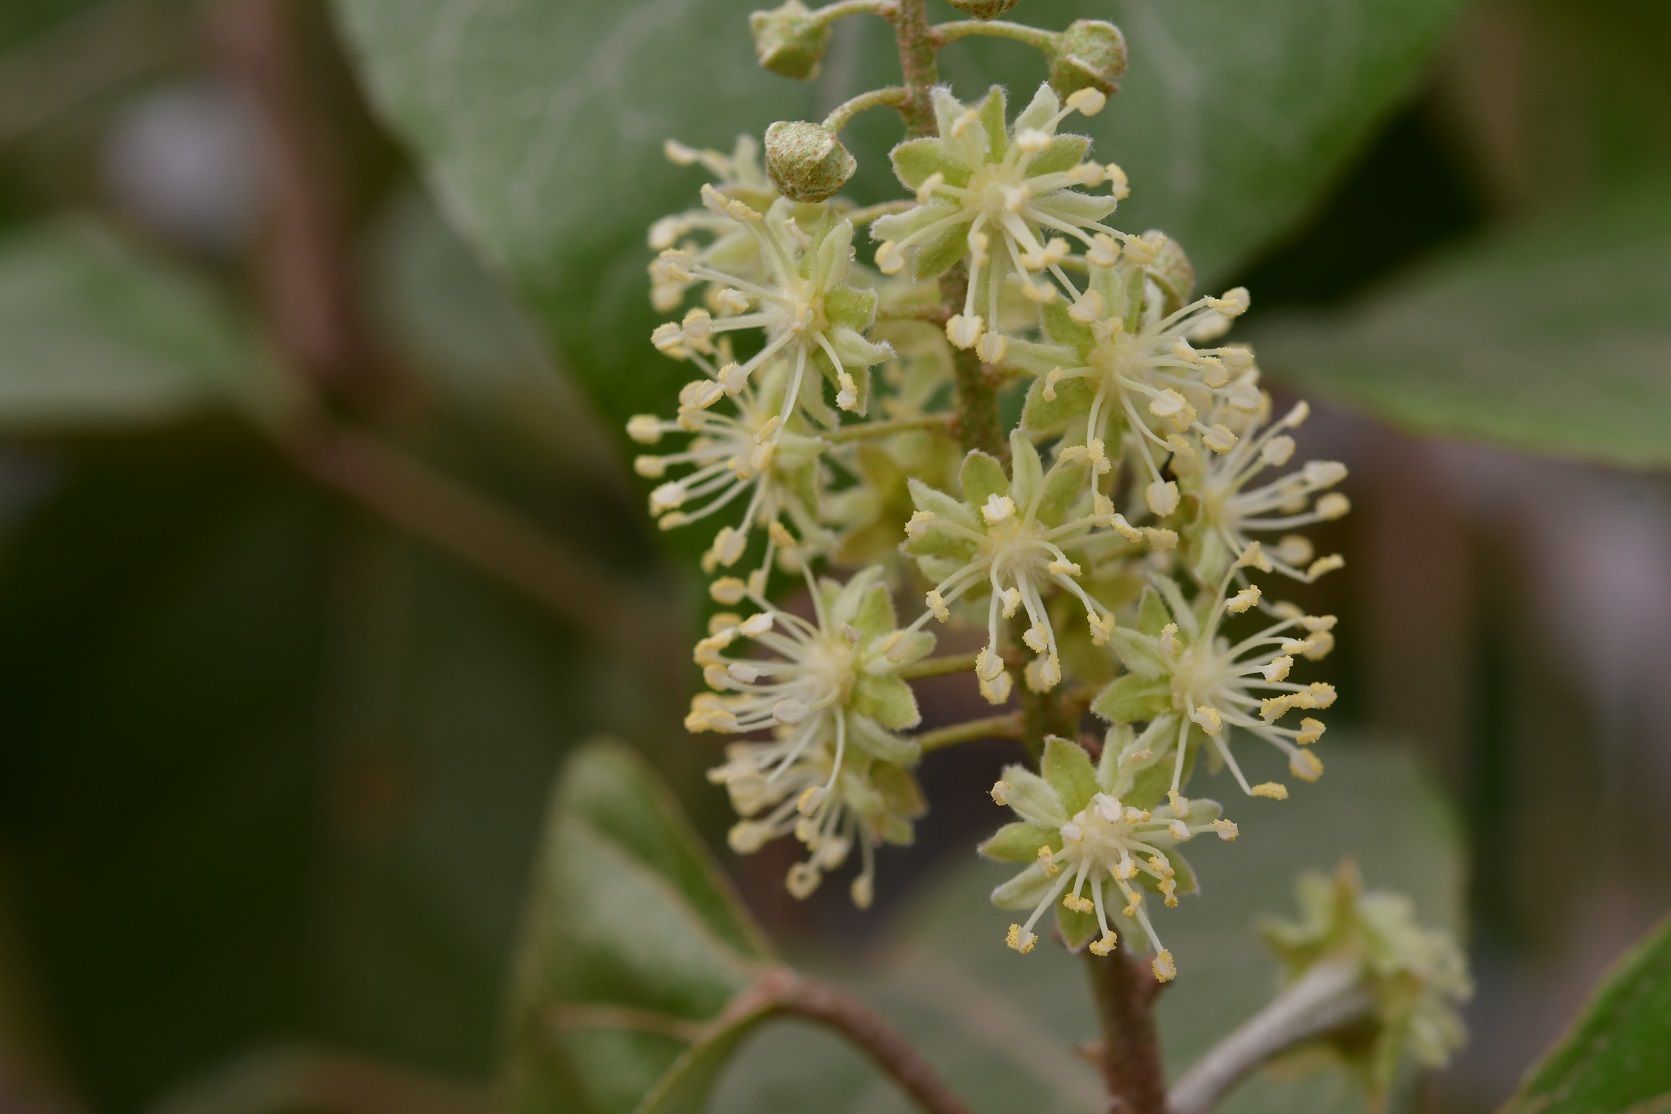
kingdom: Plantae
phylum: Tracheophyta
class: Magnoliopsida
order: Malpighiales
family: Euphorbiaceae
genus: Croton
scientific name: Croton guatemalensis
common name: Copalchi
